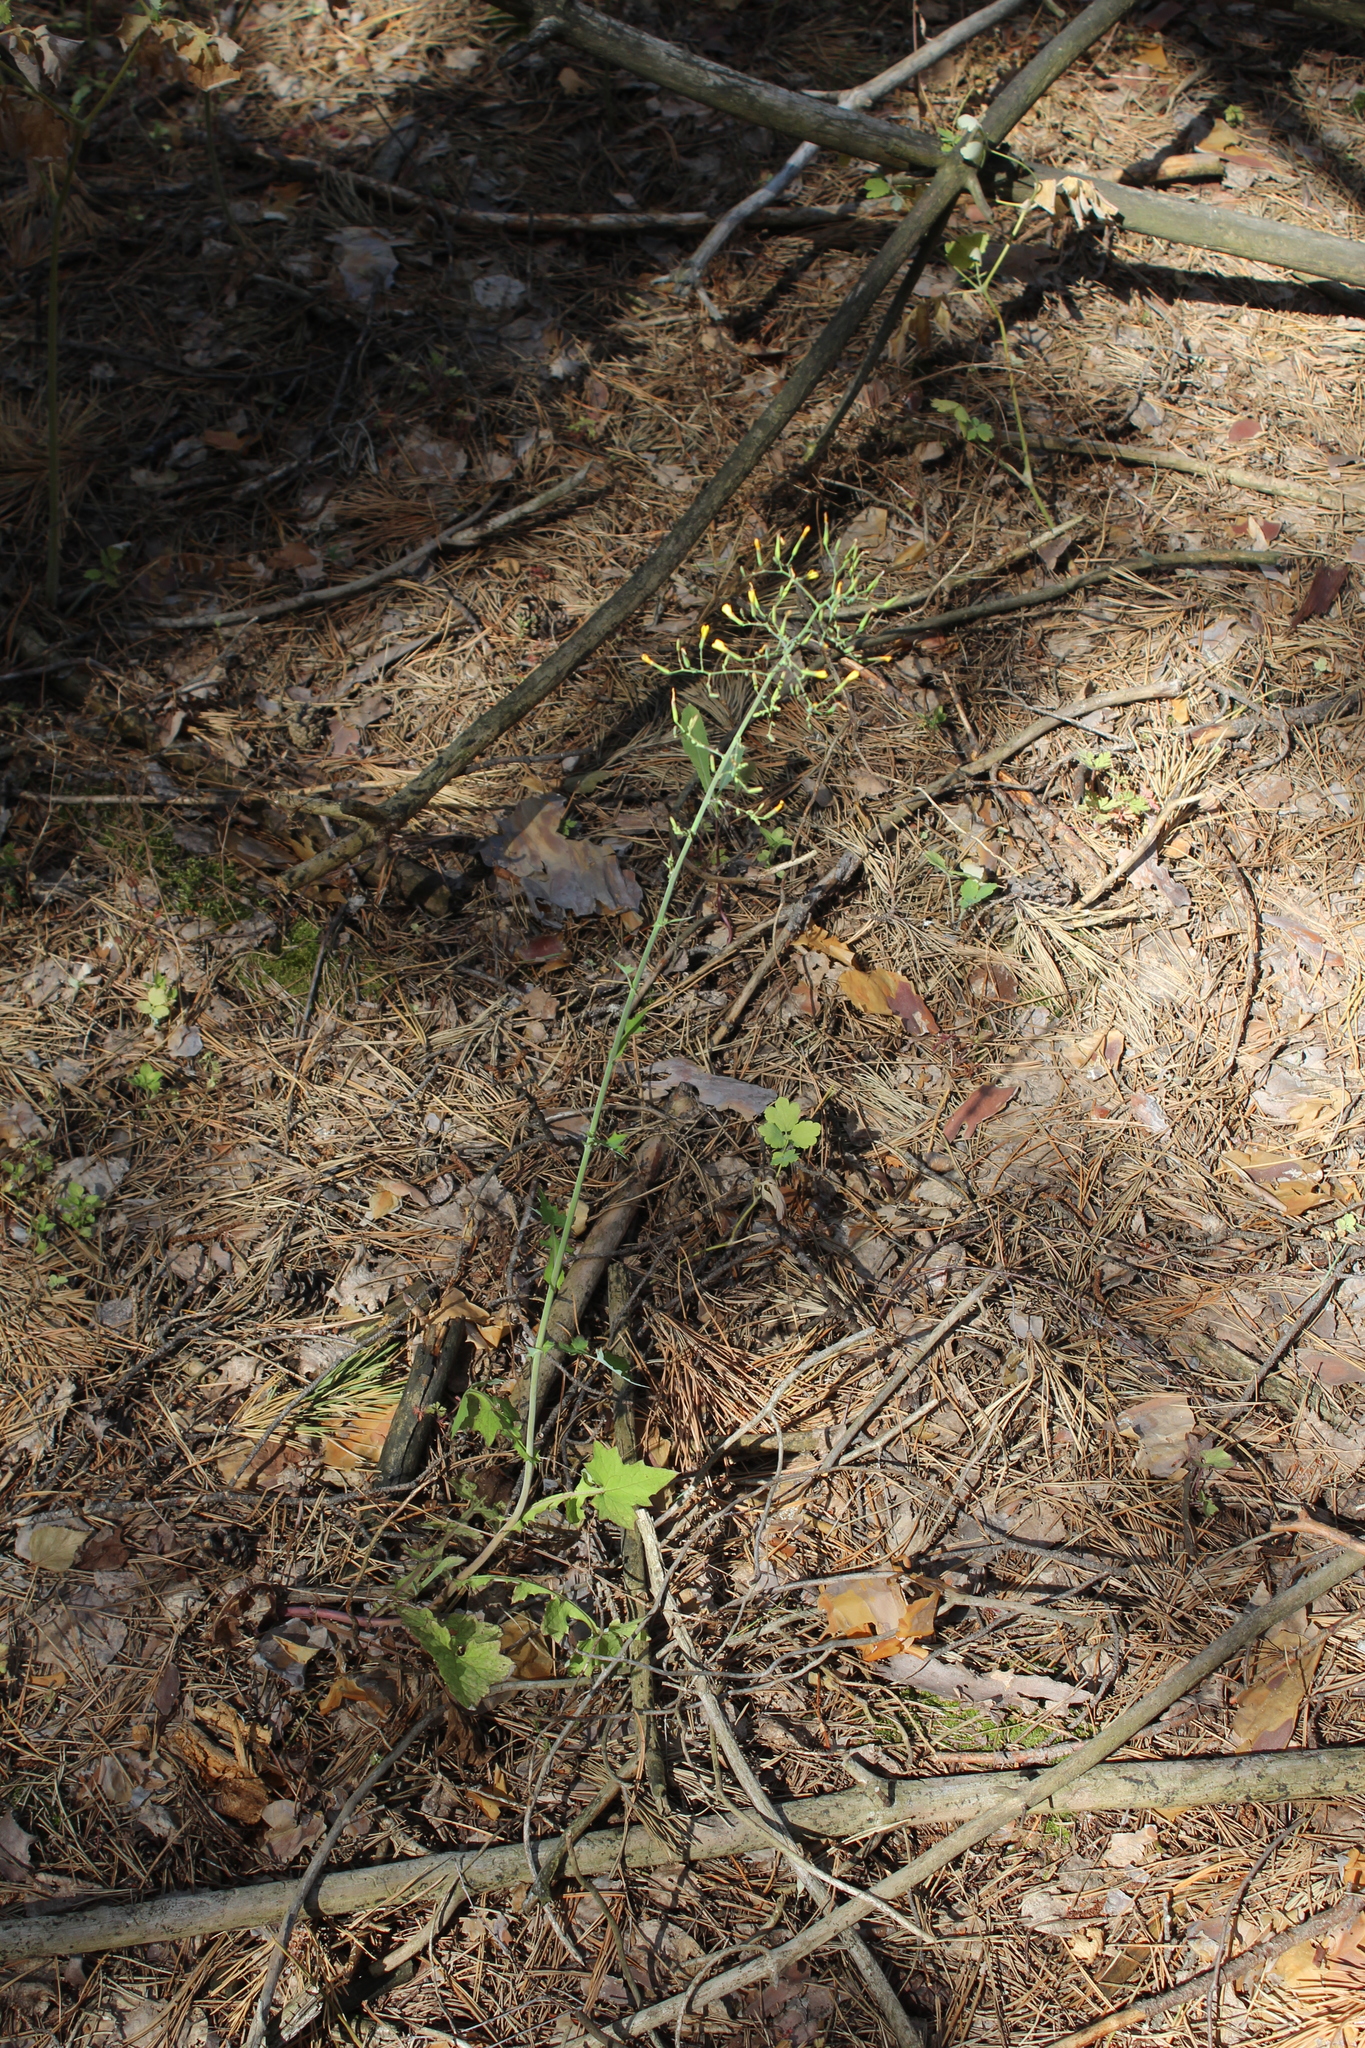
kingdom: Plantae
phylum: Tracheophyta
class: Magnoliopsida
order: Asterales
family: Asteraceae
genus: Mycelis
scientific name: Mycelis muralis
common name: Wall lettuce
